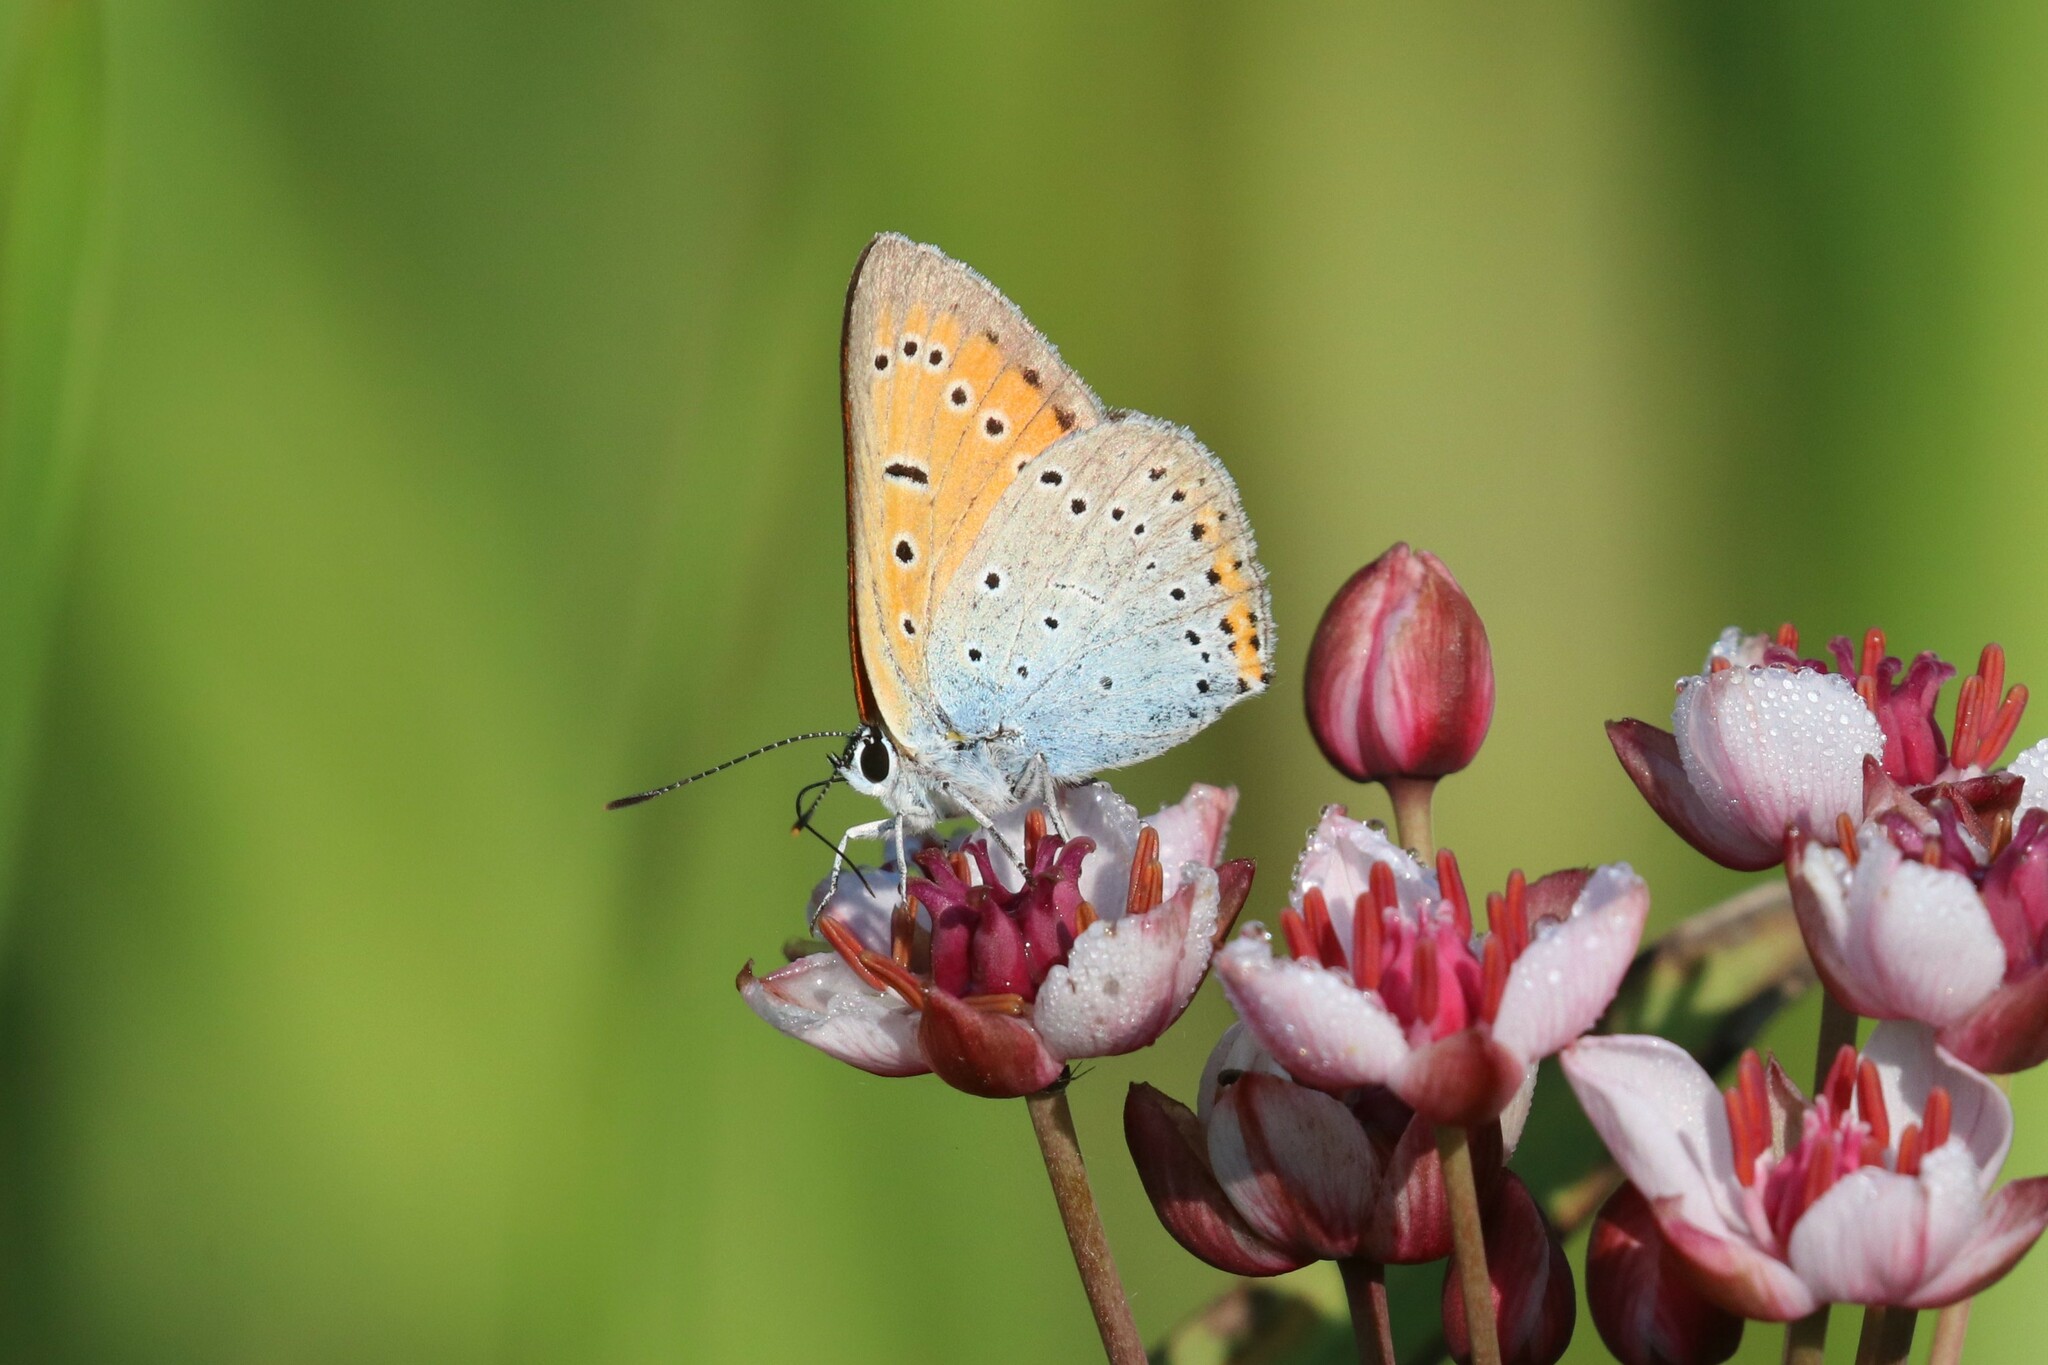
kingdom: Animalia
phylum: Arthropoda
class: Insecta
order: Lepidoptera
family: Lycaenidae
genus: Lycaena
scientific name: Lycaena dispar
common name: Large copper
